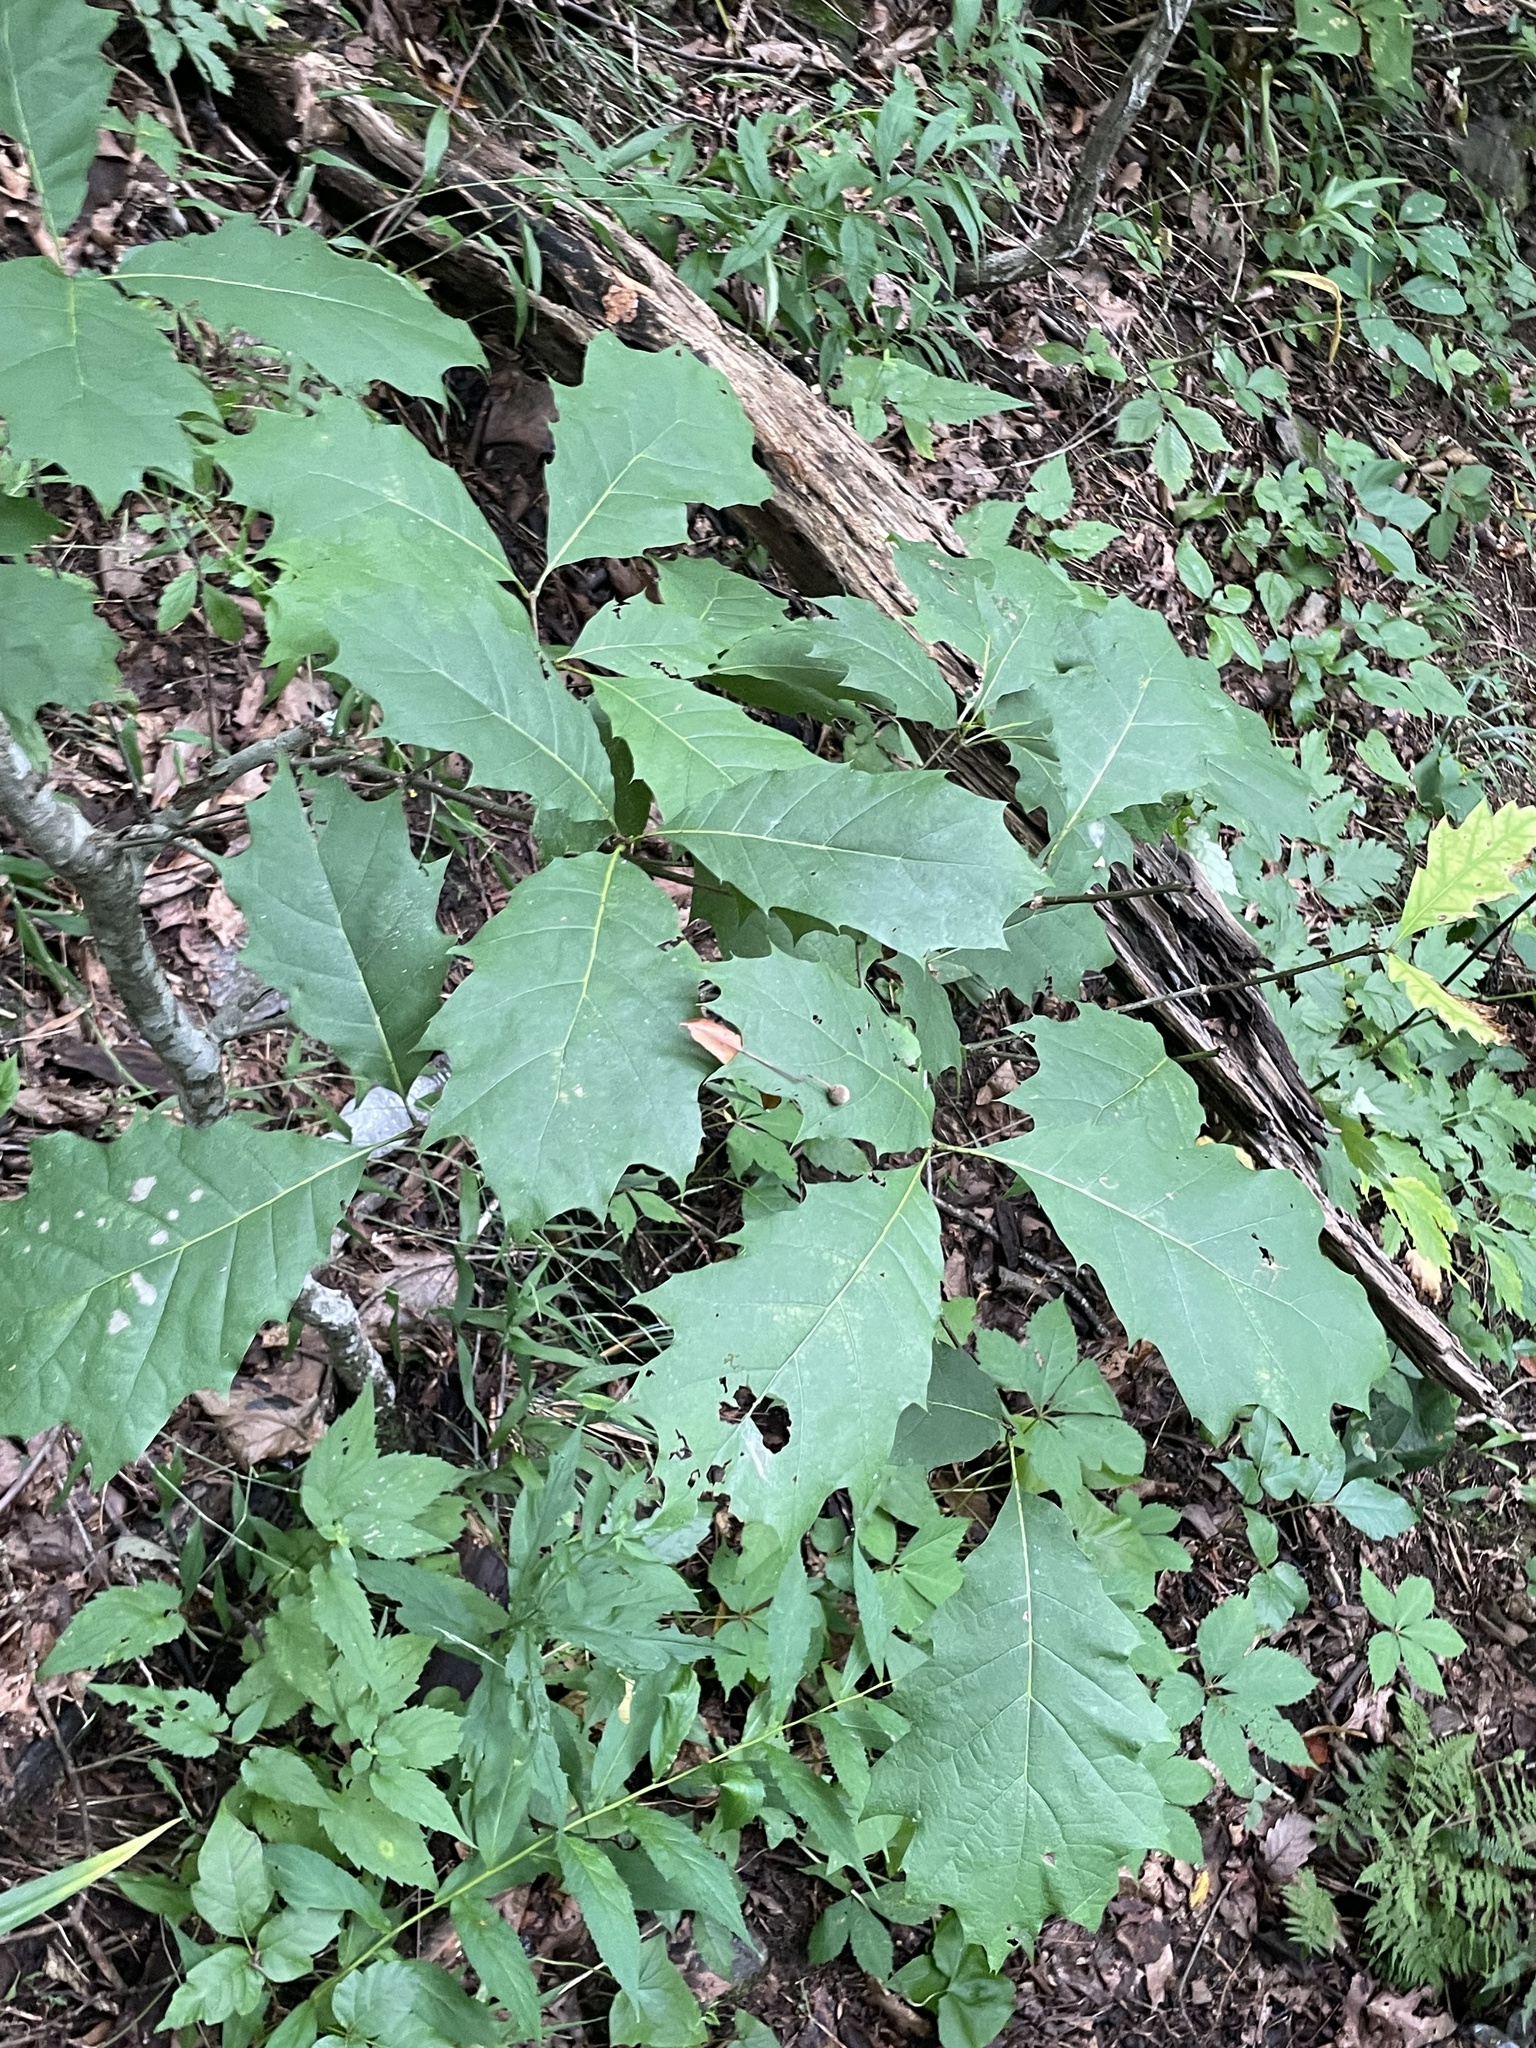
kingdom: Plantae
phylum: Tracheophyta
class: Magnoliopsida
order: Fagales
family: Fagaceae
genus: Quercus
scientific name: Quercus rubra
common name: Red oak
